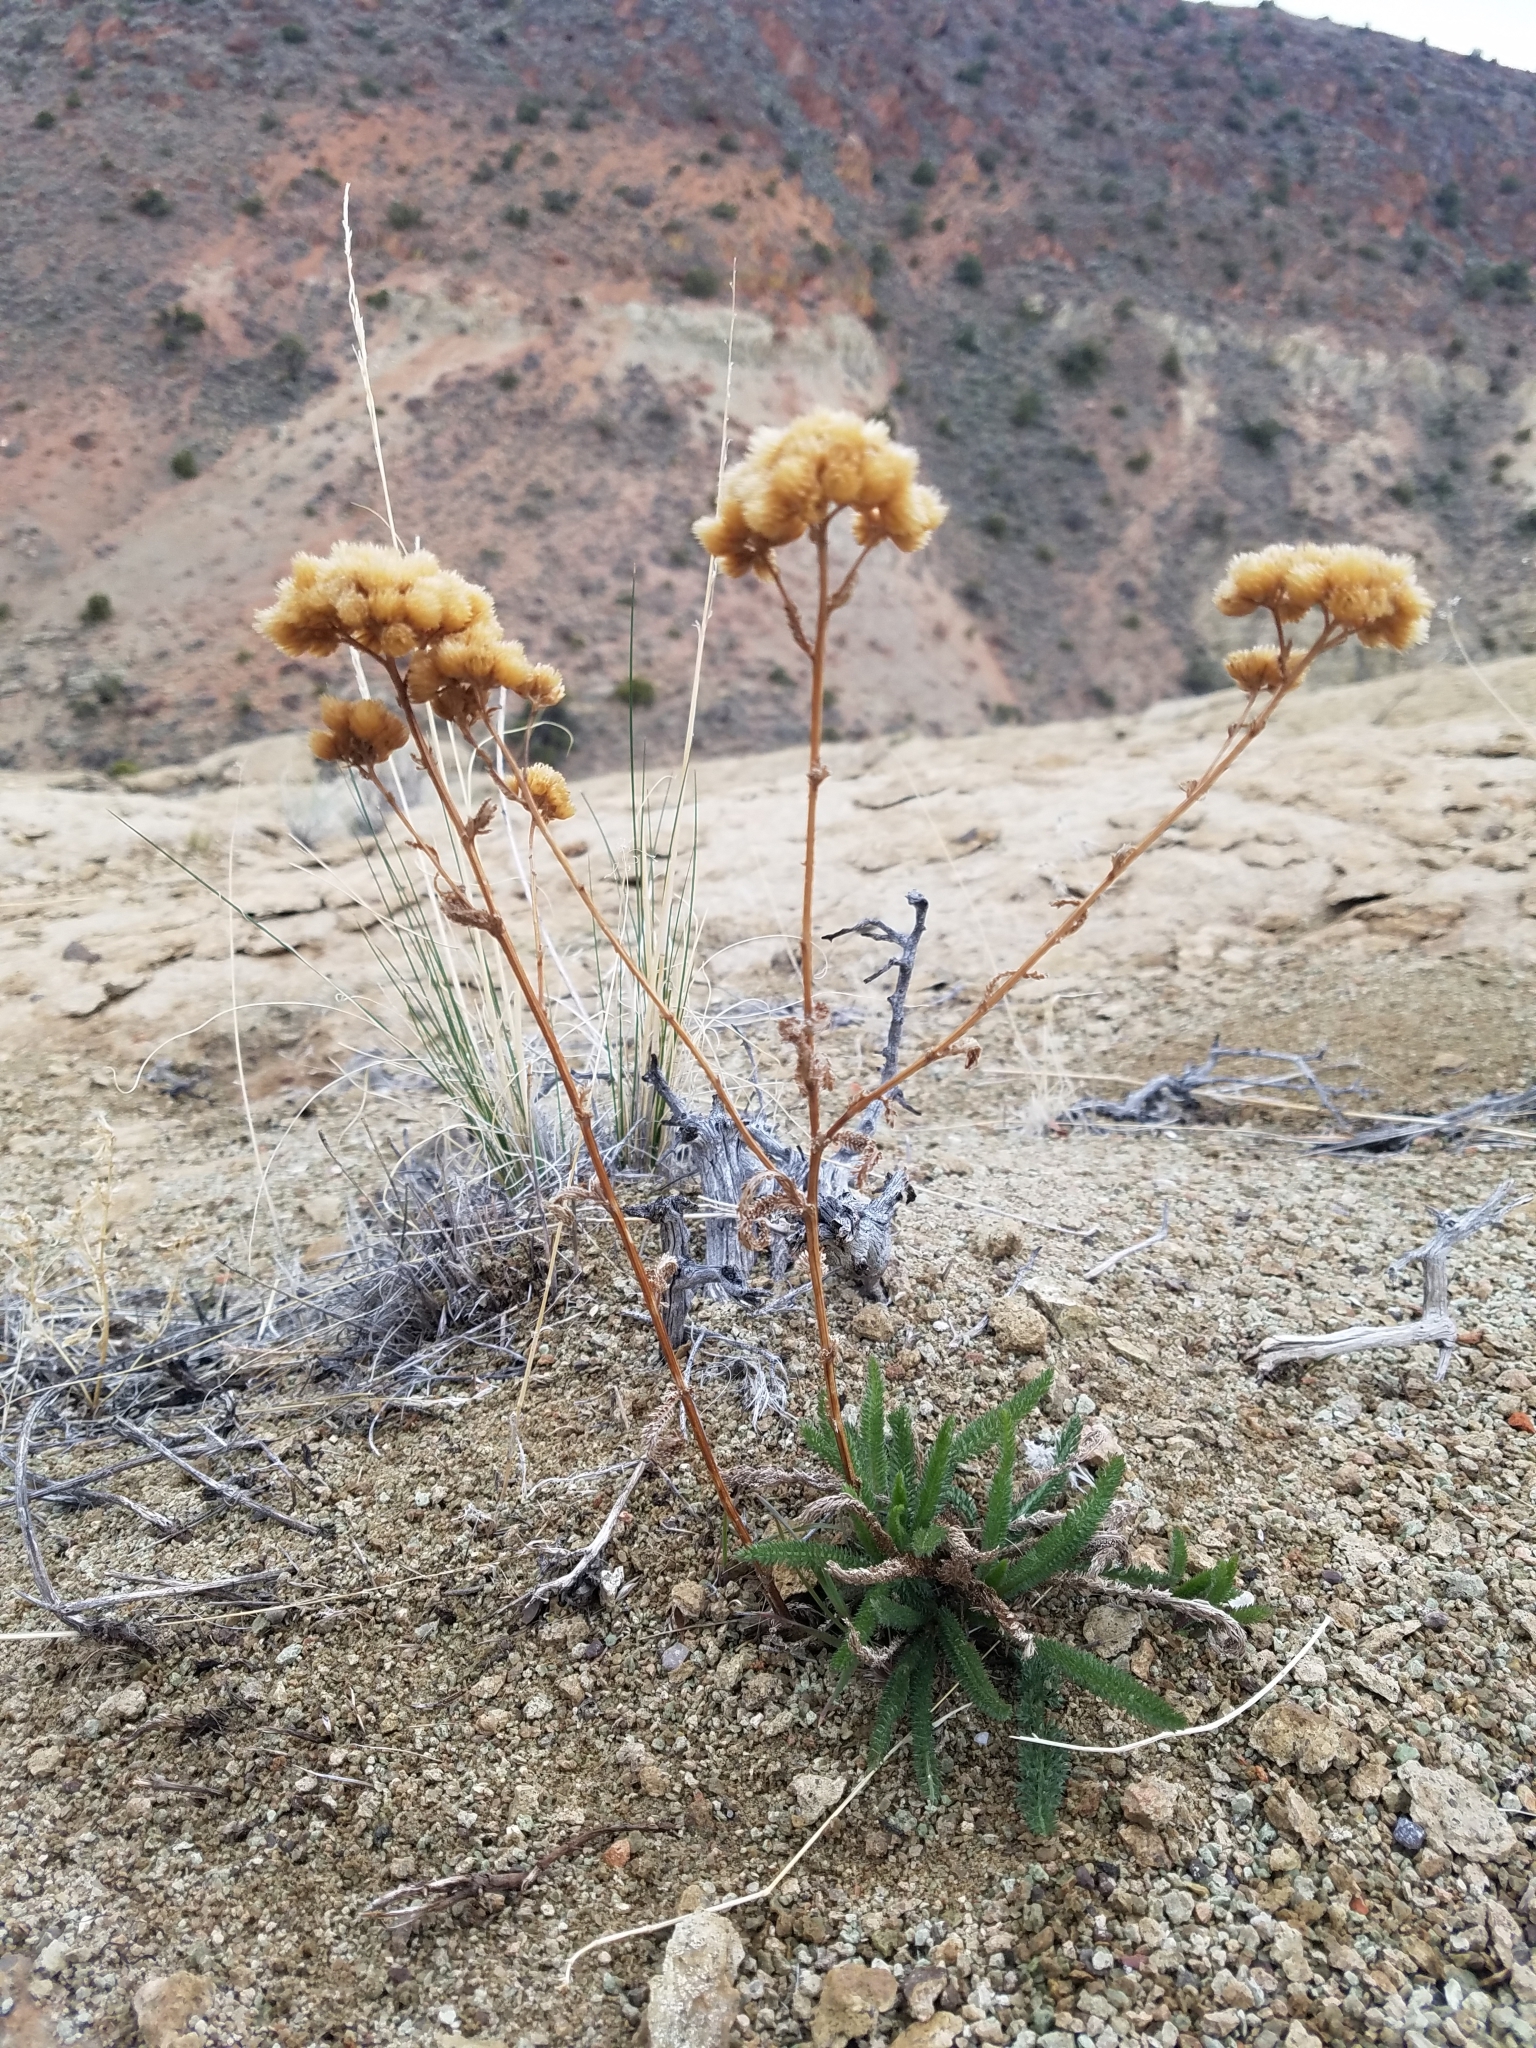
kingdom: Plantae
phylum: Tracheophyta
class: Magnoliopsida
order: Asterales
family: Asteraceae
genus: Achillea
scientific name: Achillea millefolium
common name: Yarrow
